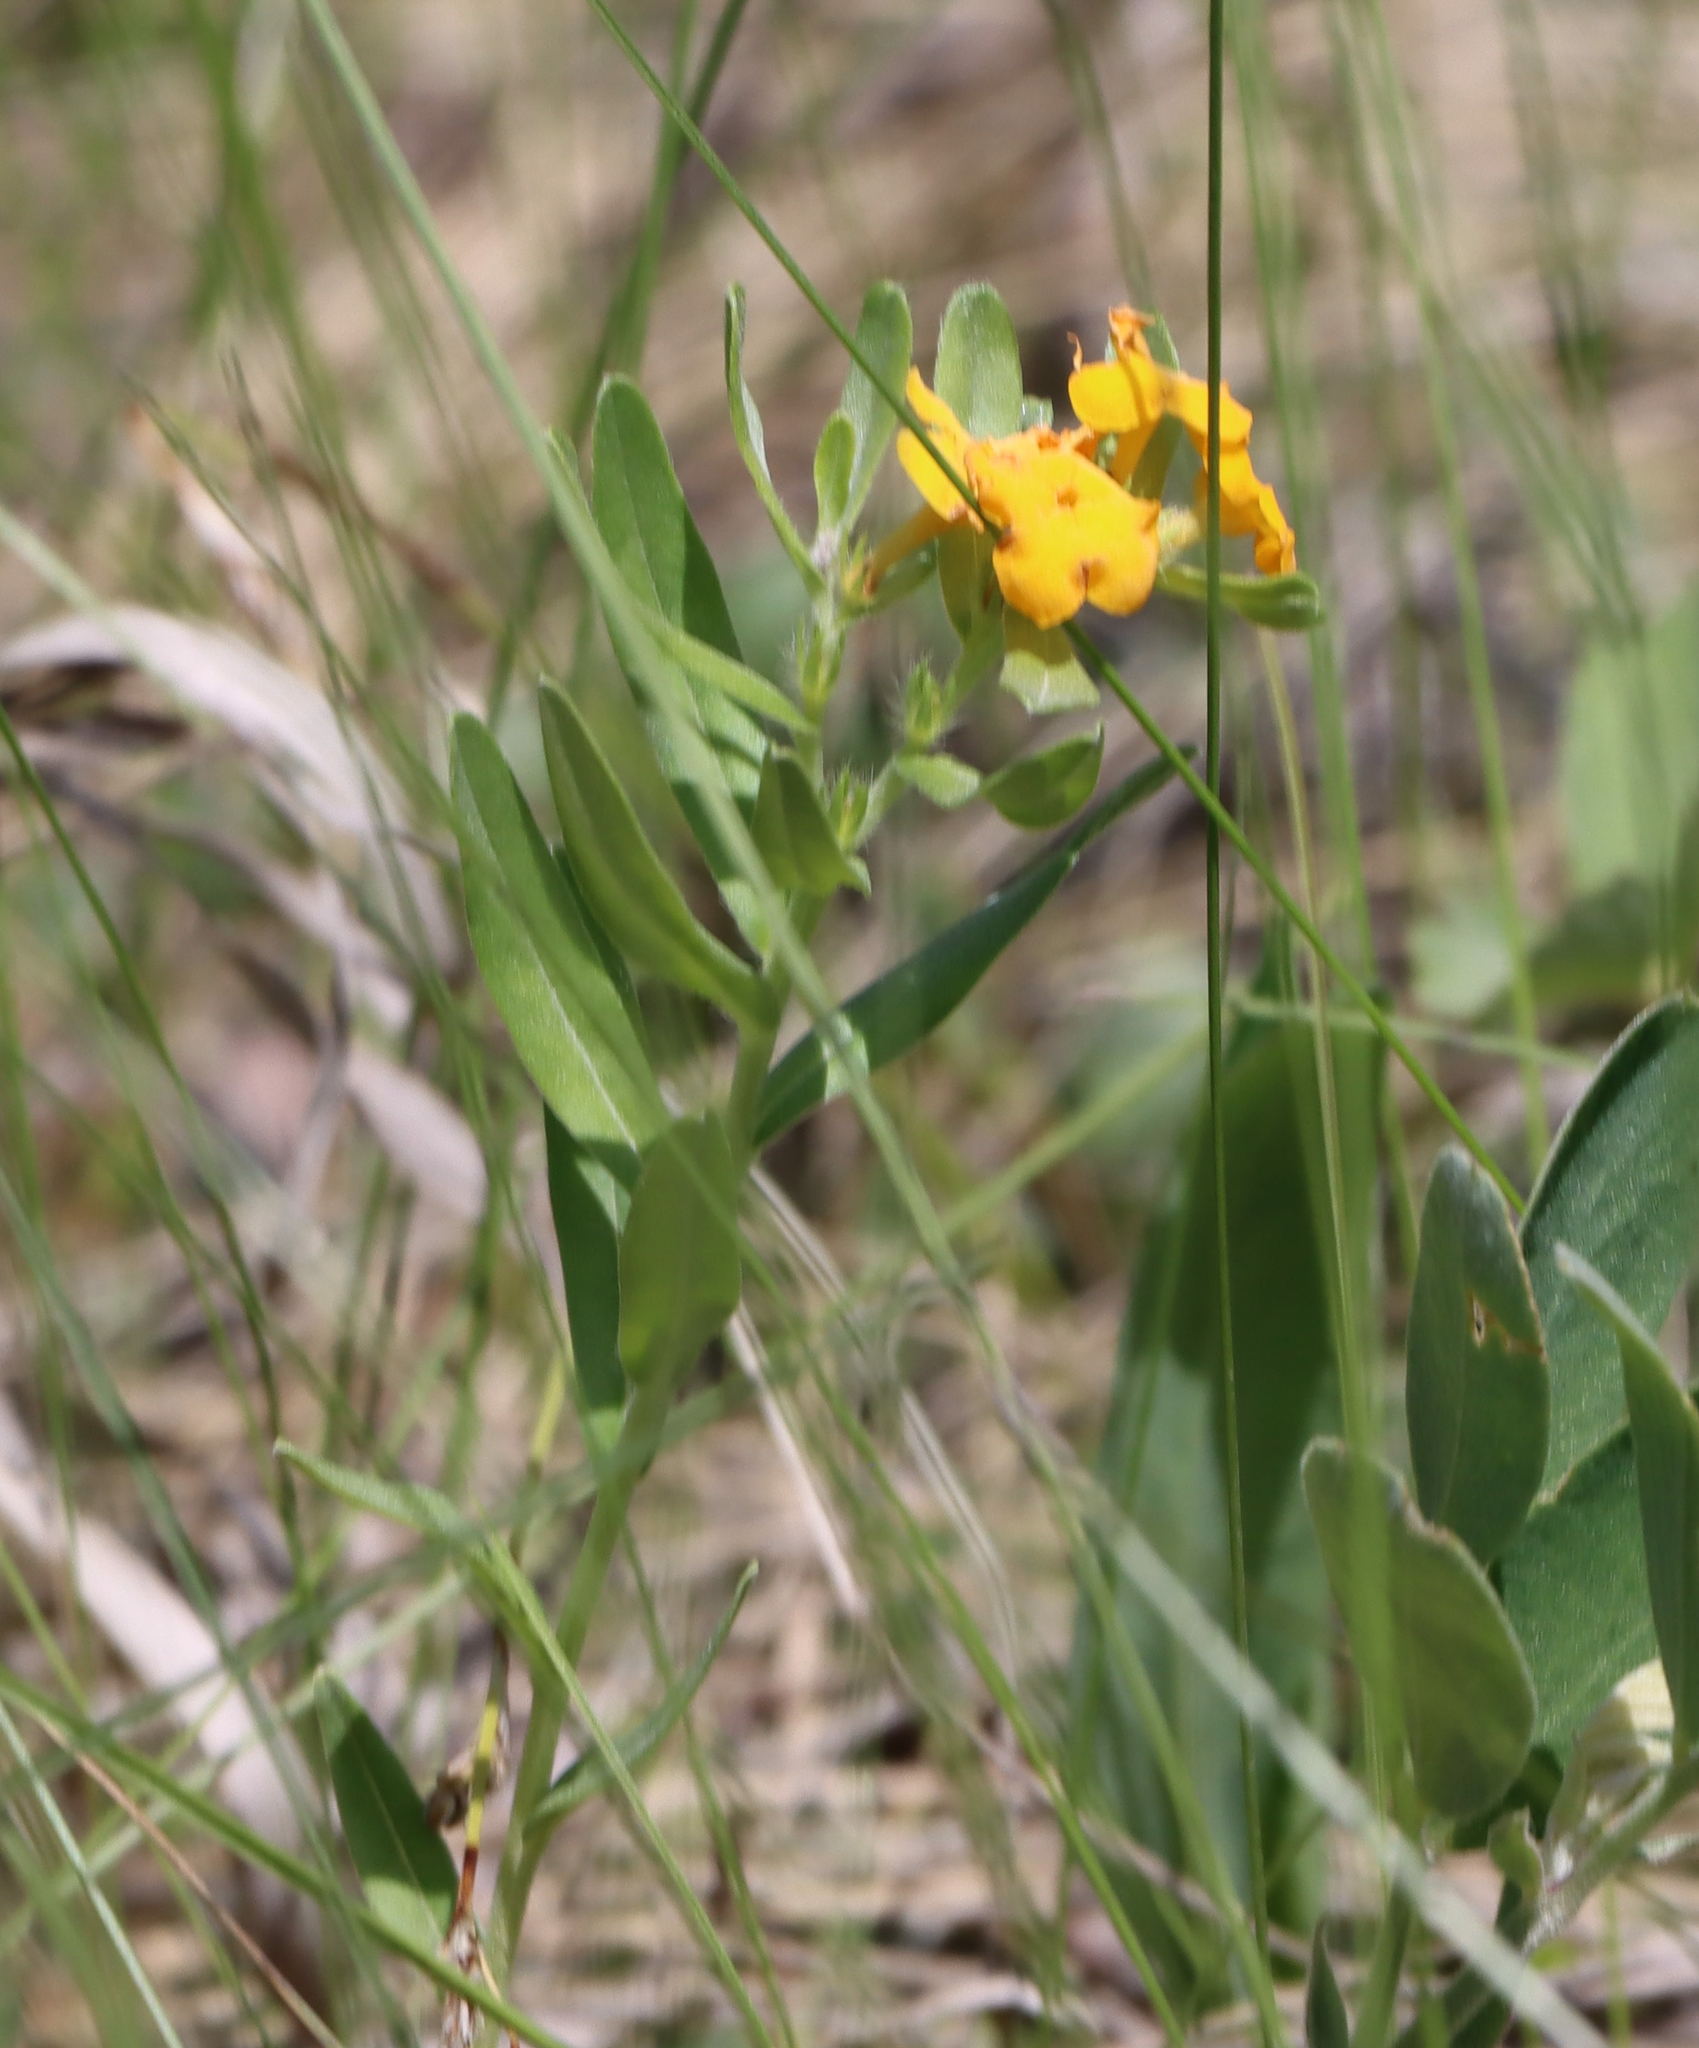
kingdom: Plantae
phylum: Tracheophyta
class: Magnoliopsida
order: Boraginales
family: Boraginaceae
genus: Lithospermum
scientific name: Lithospermum canescens
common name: Hoary puccoon
